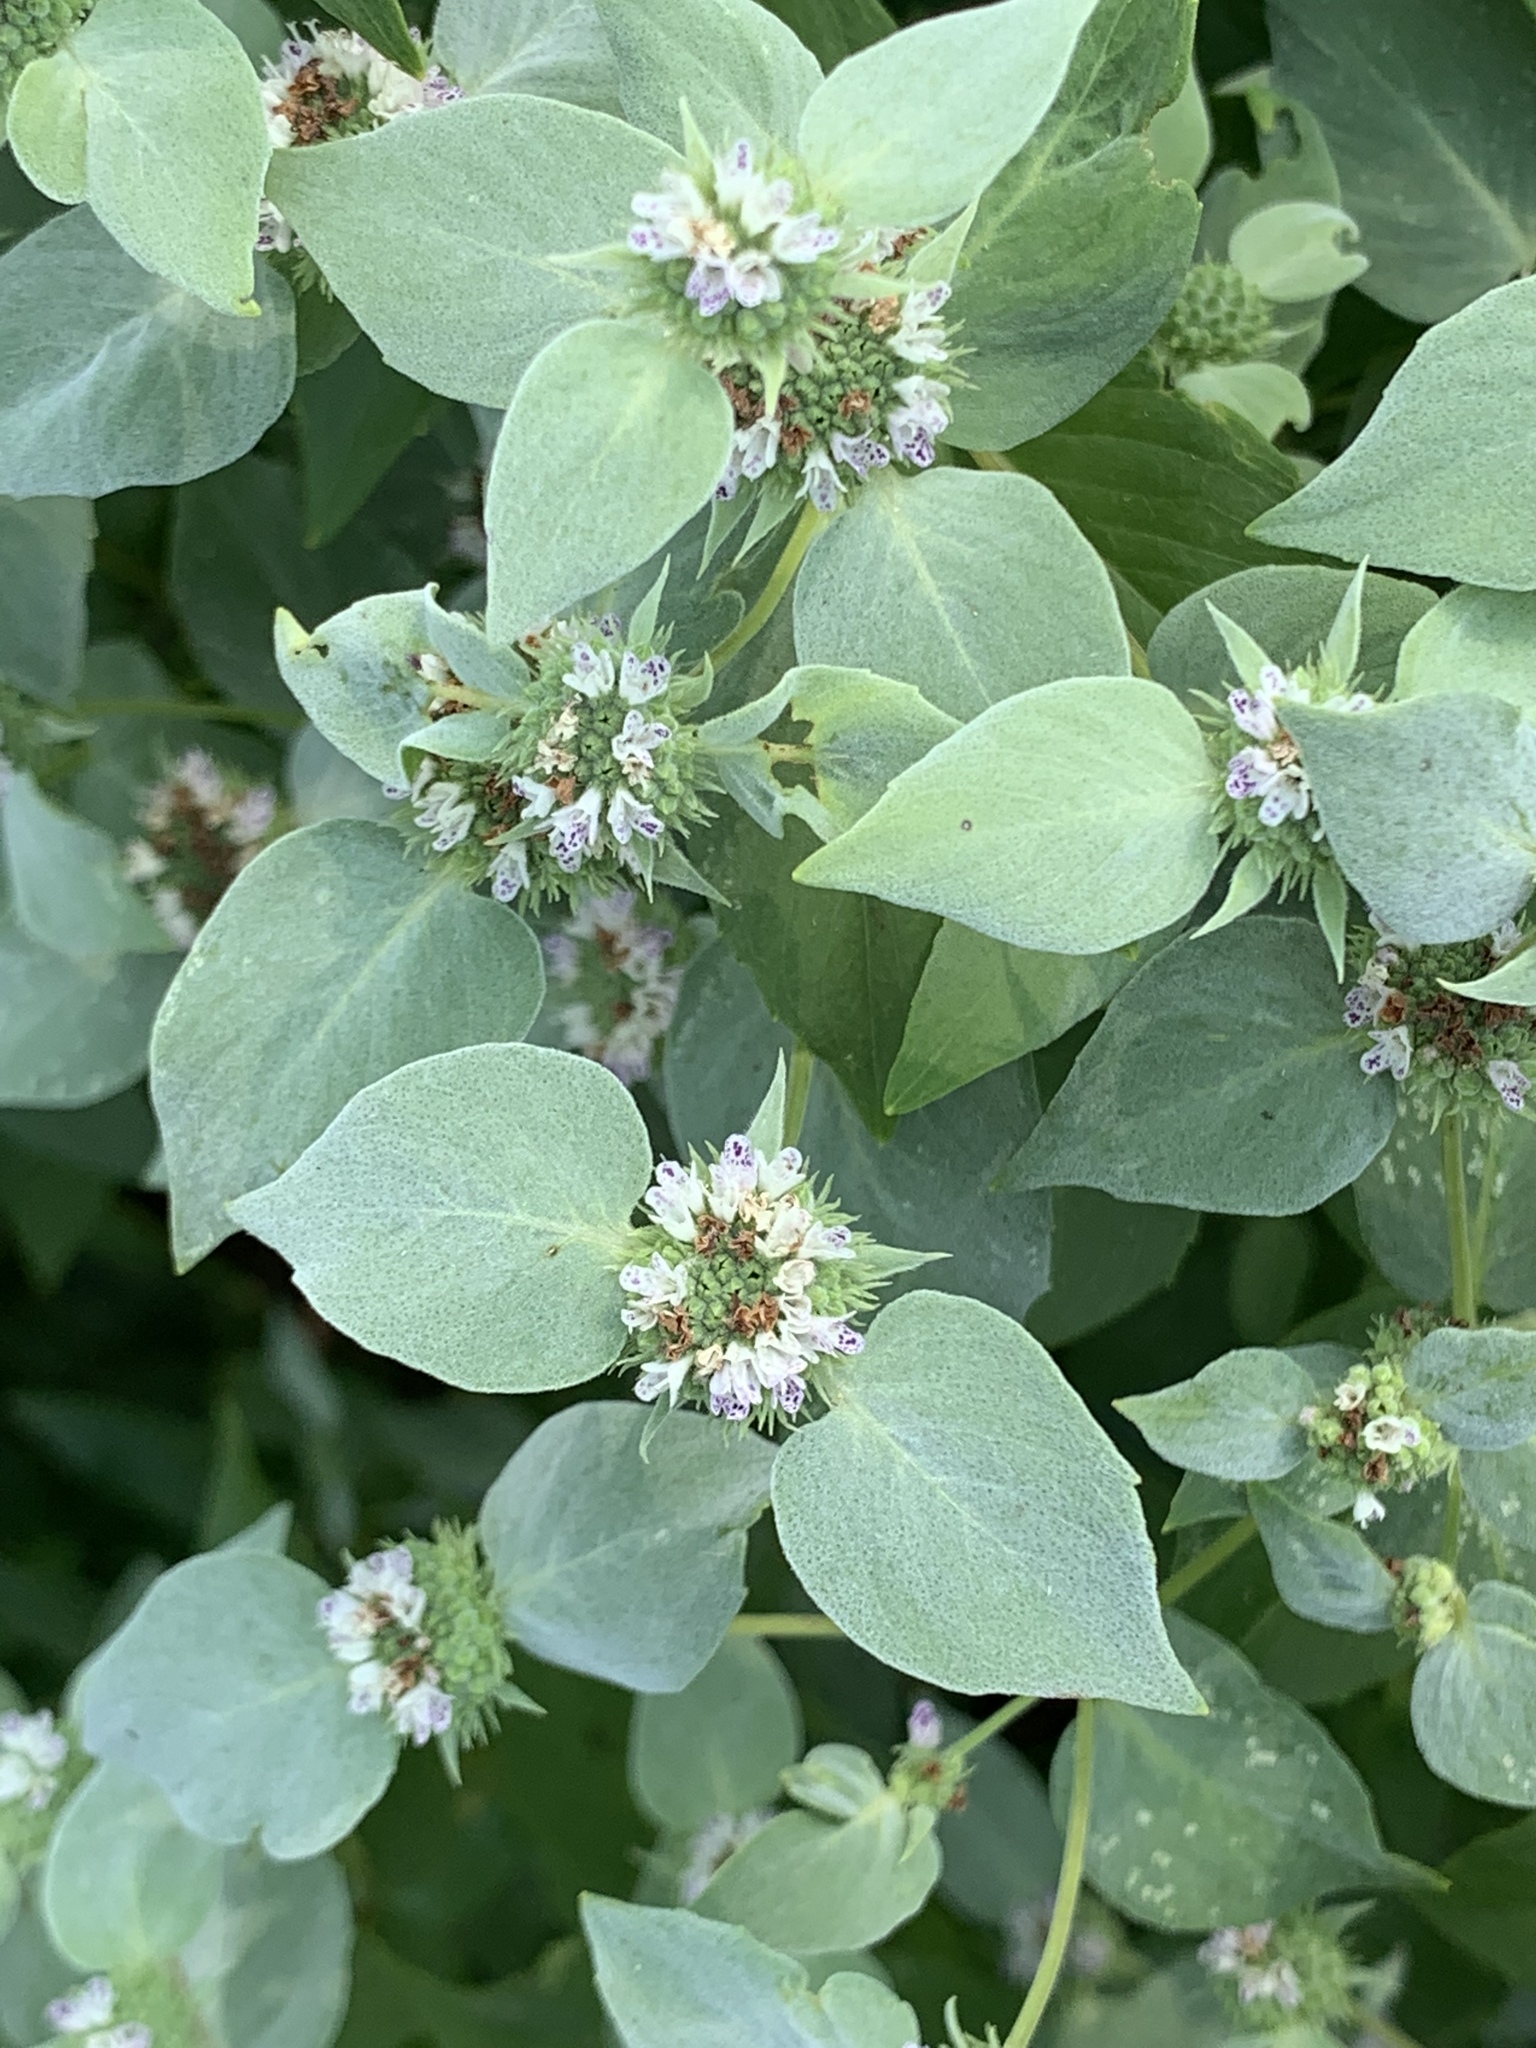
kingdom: Plantae
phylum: Tracheophyta
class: Magnoliopsida
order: Lamiales
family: Lamiaceae
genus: Pycnanthemum
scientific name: Pycnanthemum muticum
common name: Blunt mountain-mint
